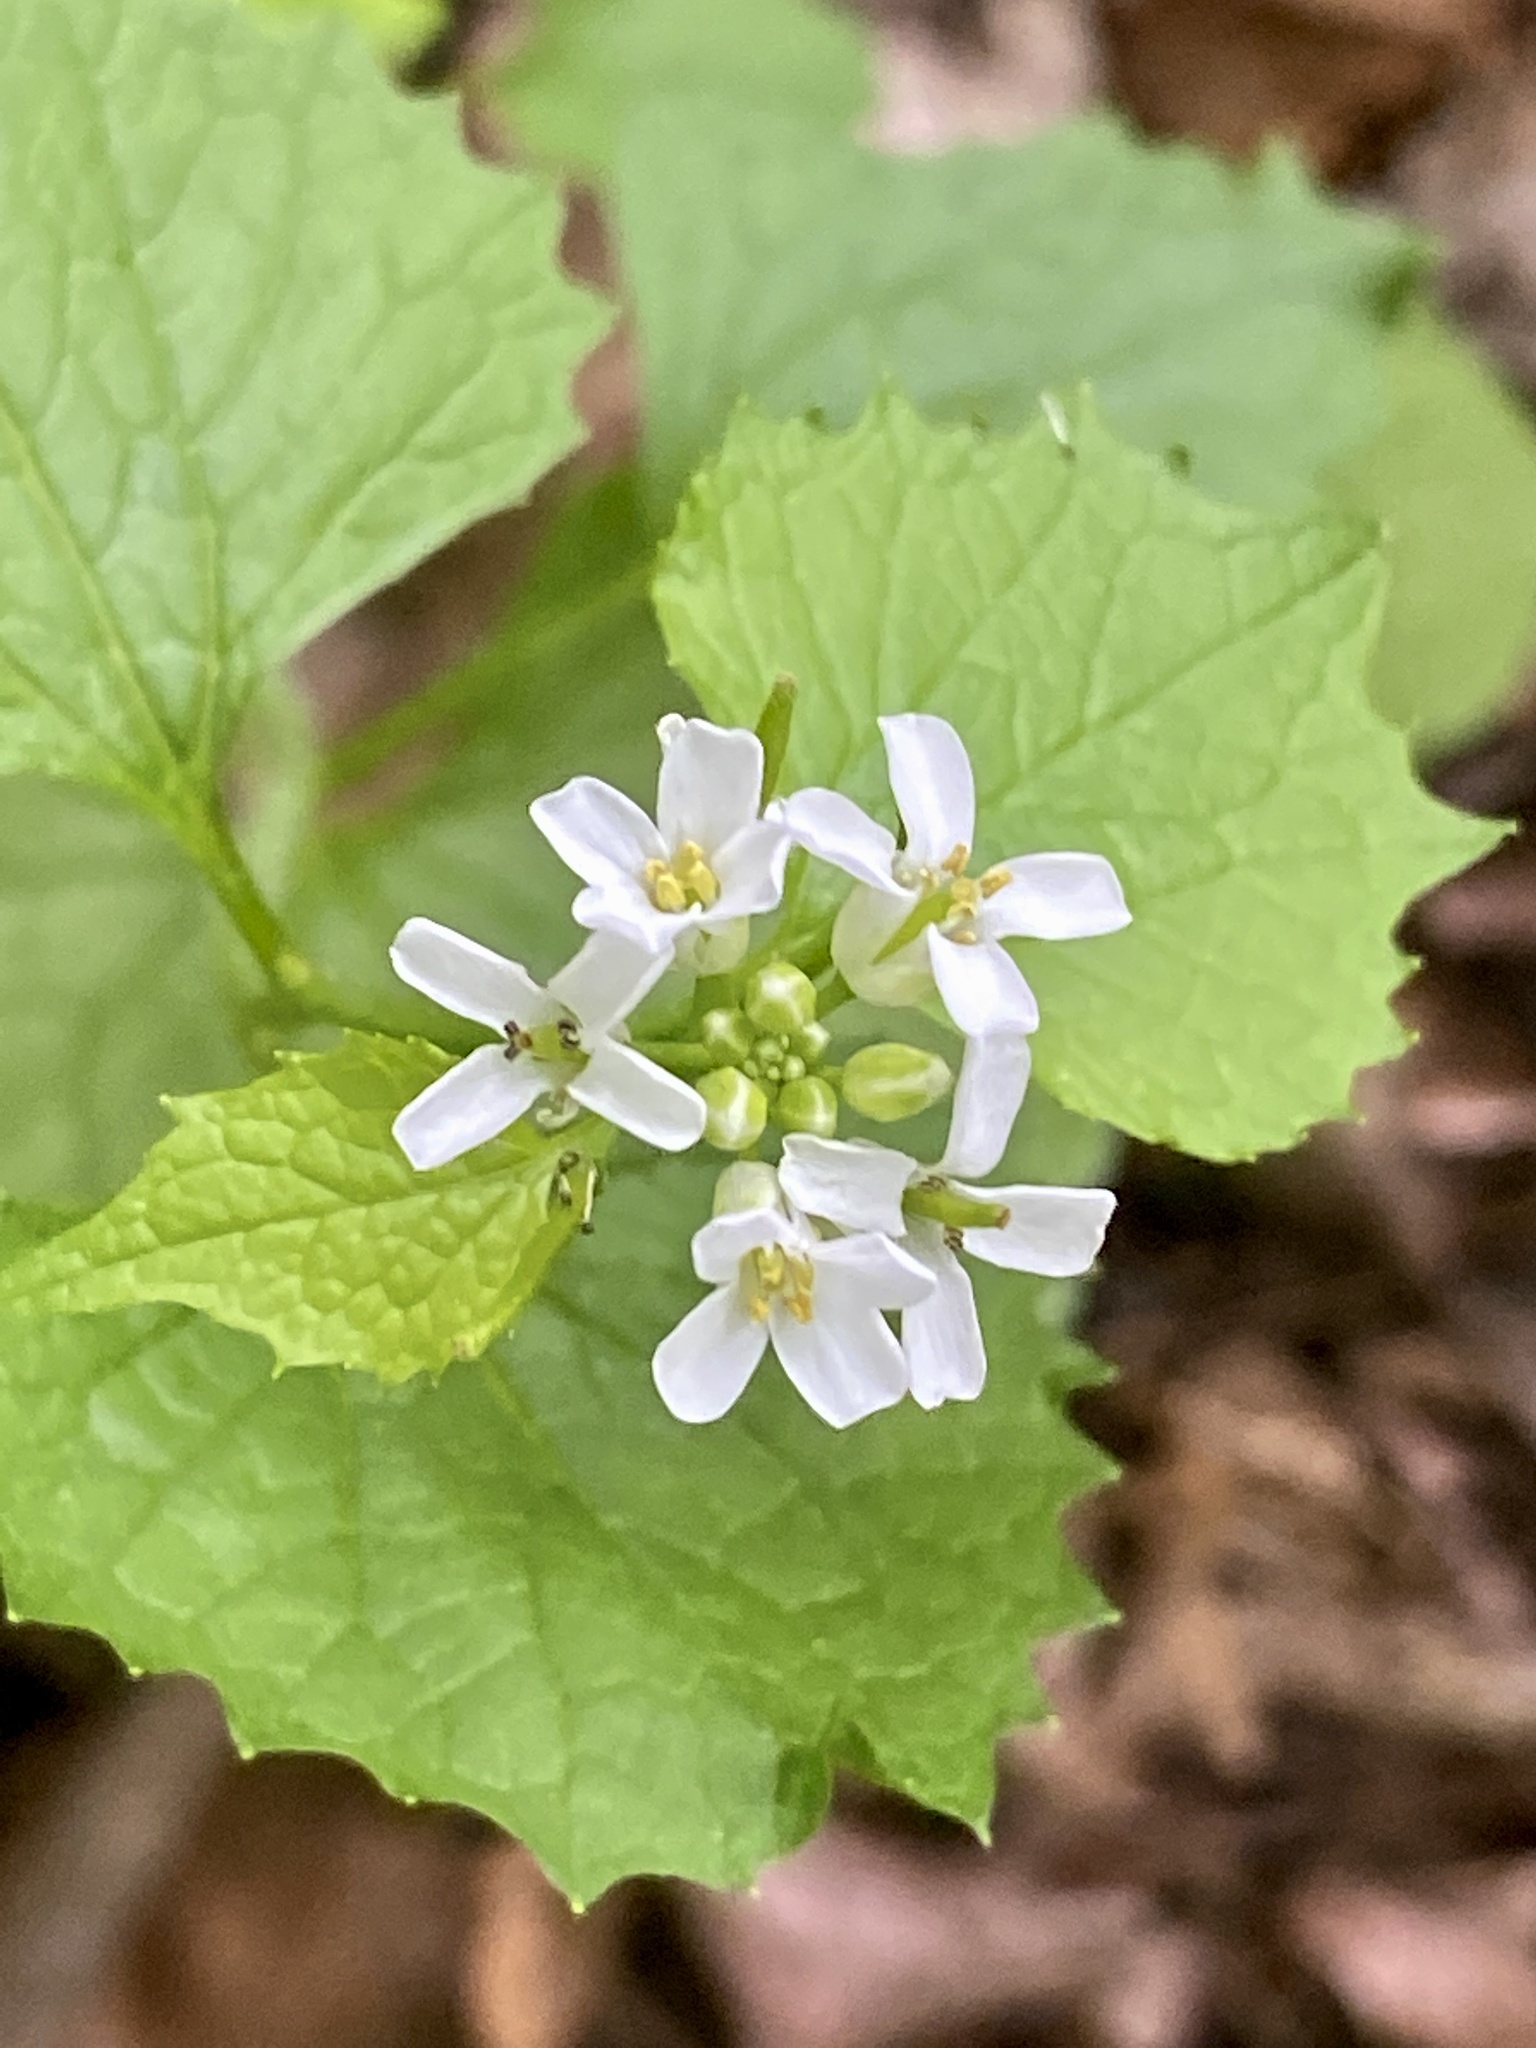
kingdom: Plantae
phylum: Tracheophyta
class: Magnoliopsida
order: Brassicales
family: Brassicaceae
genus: Alliaria
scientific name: Alliaria petiolata
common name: Garlic mustard
